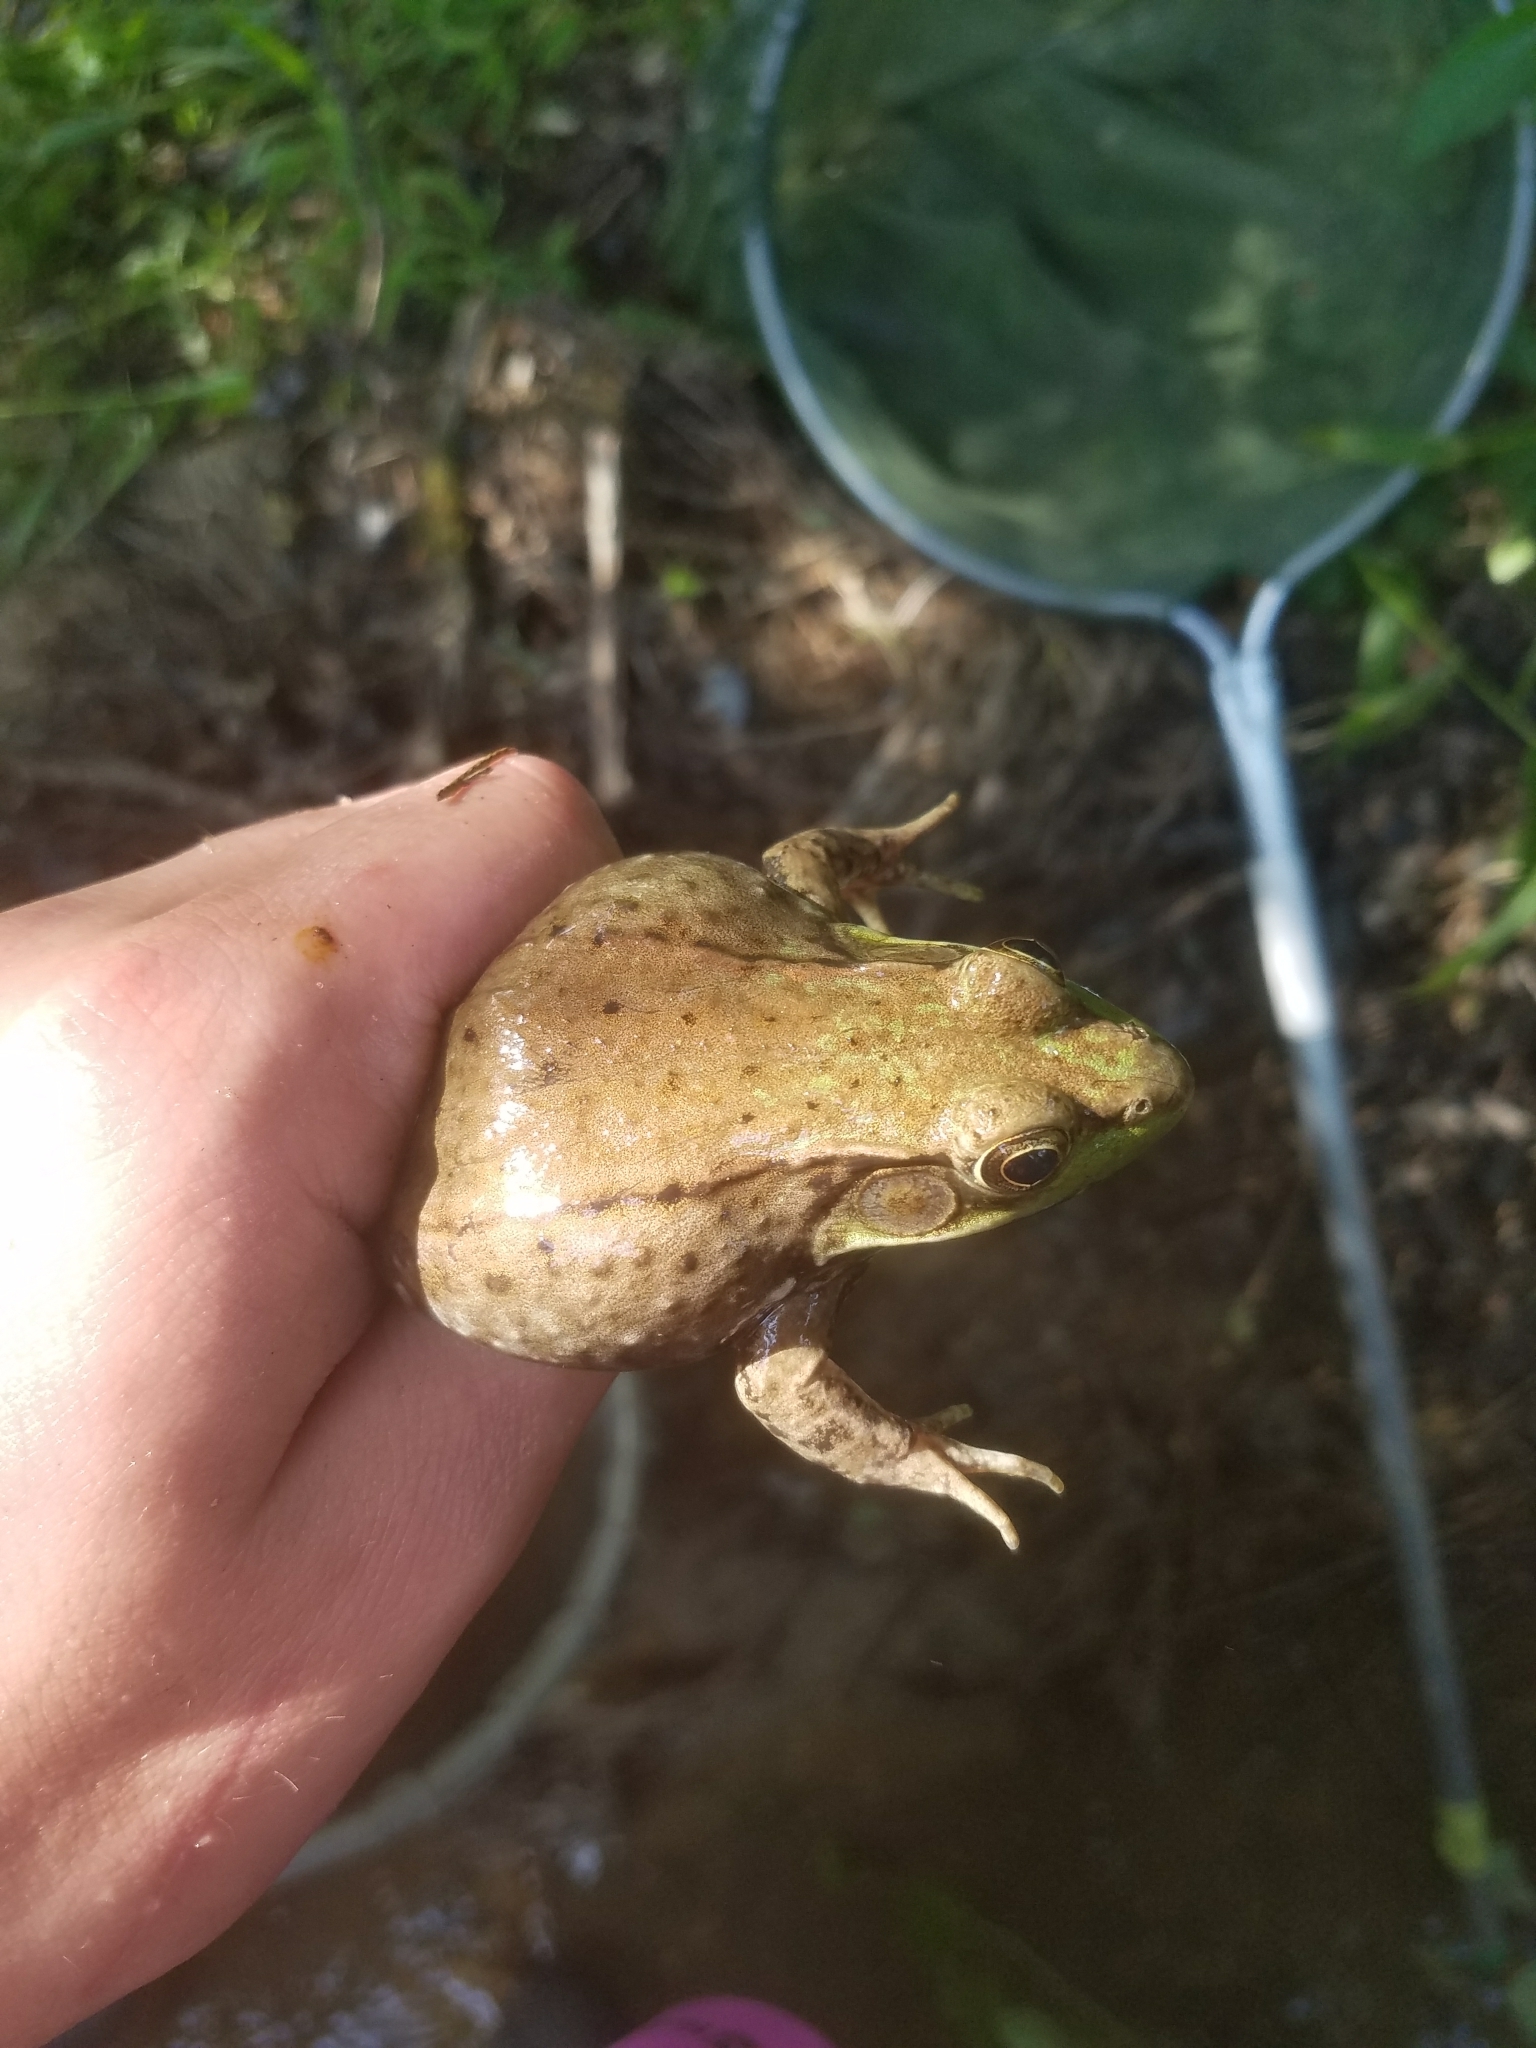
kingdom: Animalia
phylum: Chordata
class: Amphibia
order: Anura
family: Ranidae
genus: Lithobates
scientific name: Lithobates clamitans
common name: Green frog
